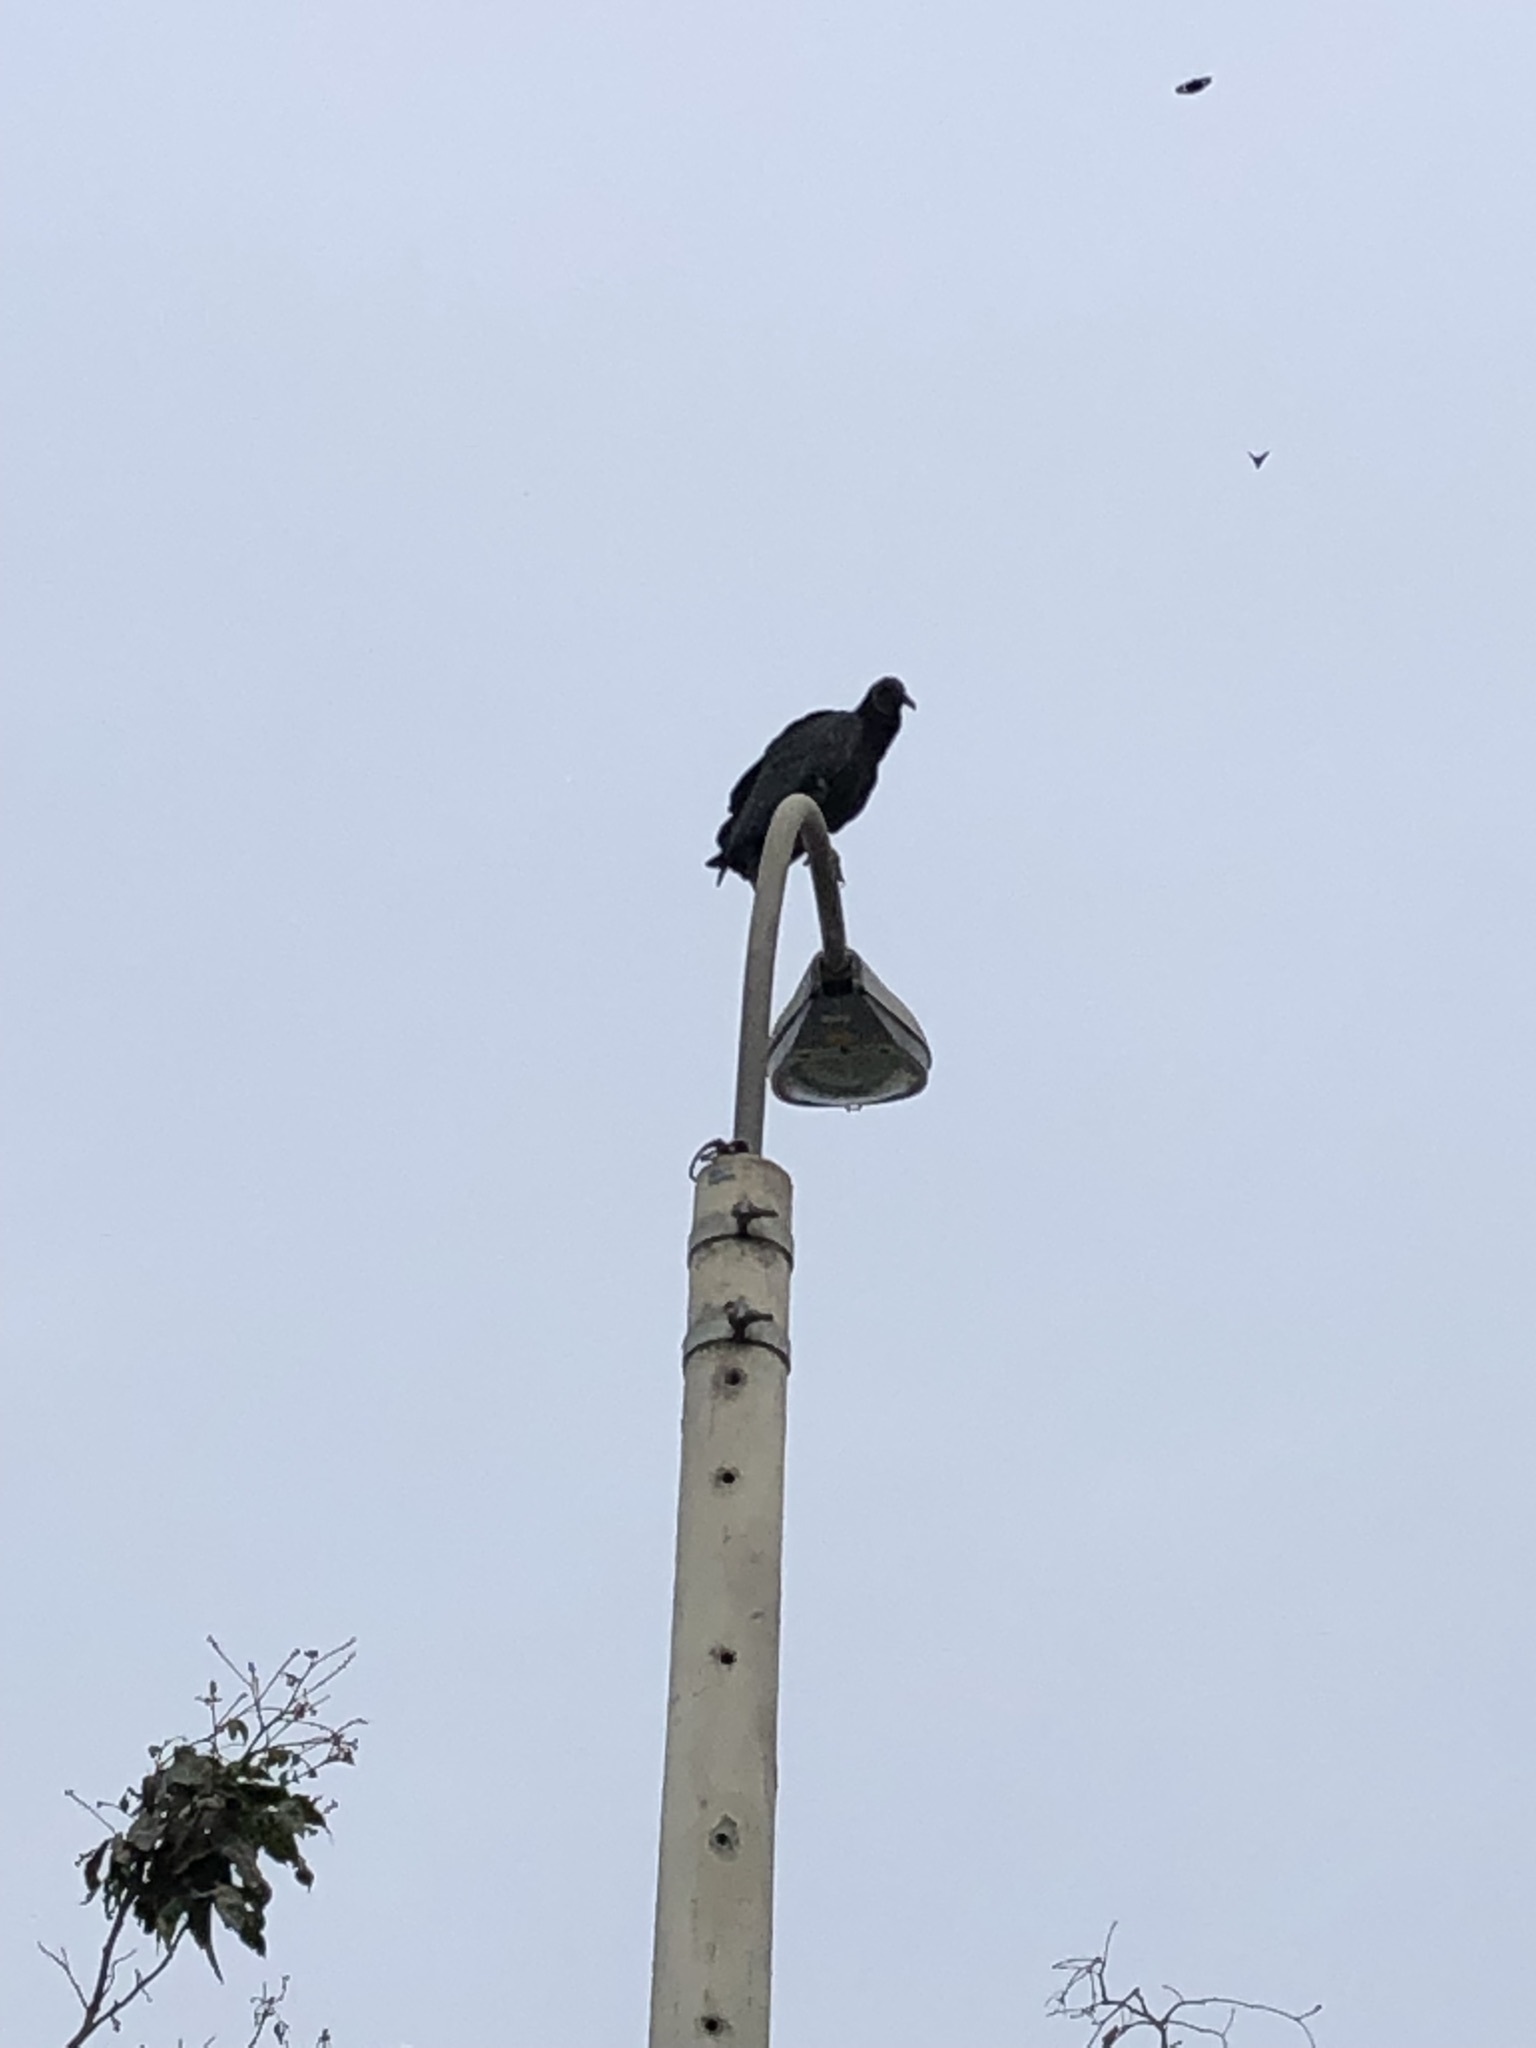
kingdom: Animalia
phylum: Chordata
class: Aves
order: Accipitriformes
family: Cathartidae
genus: Coragyps
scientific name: Coragyps atratus
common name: Black vulture
